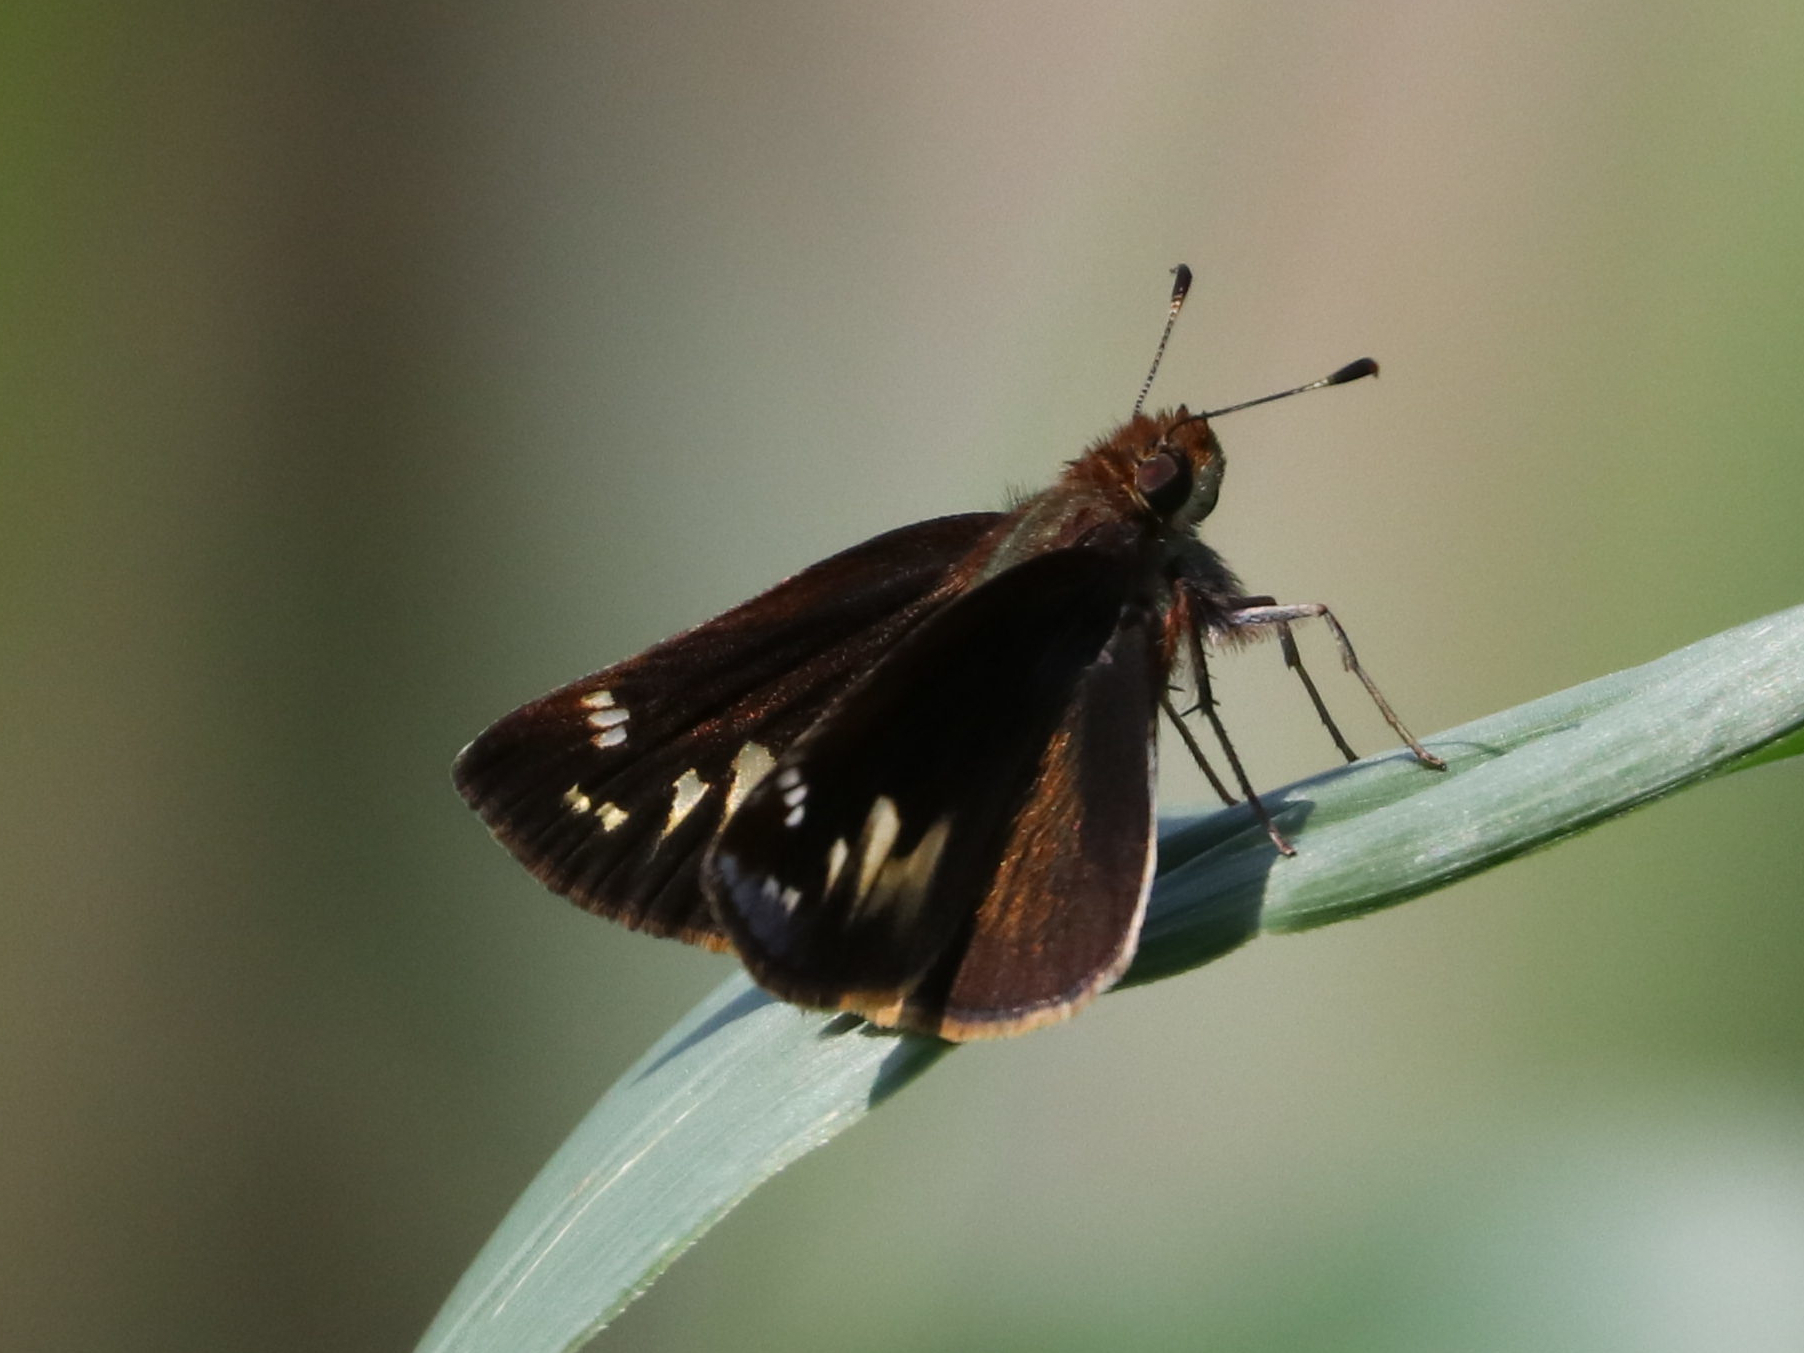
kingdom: Animalia
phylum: Arthropoda
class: Insecta
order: Lepidoptera
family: Hesperiidae
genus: Lon
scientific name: Lon zabulon
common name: Zabulon skipper
